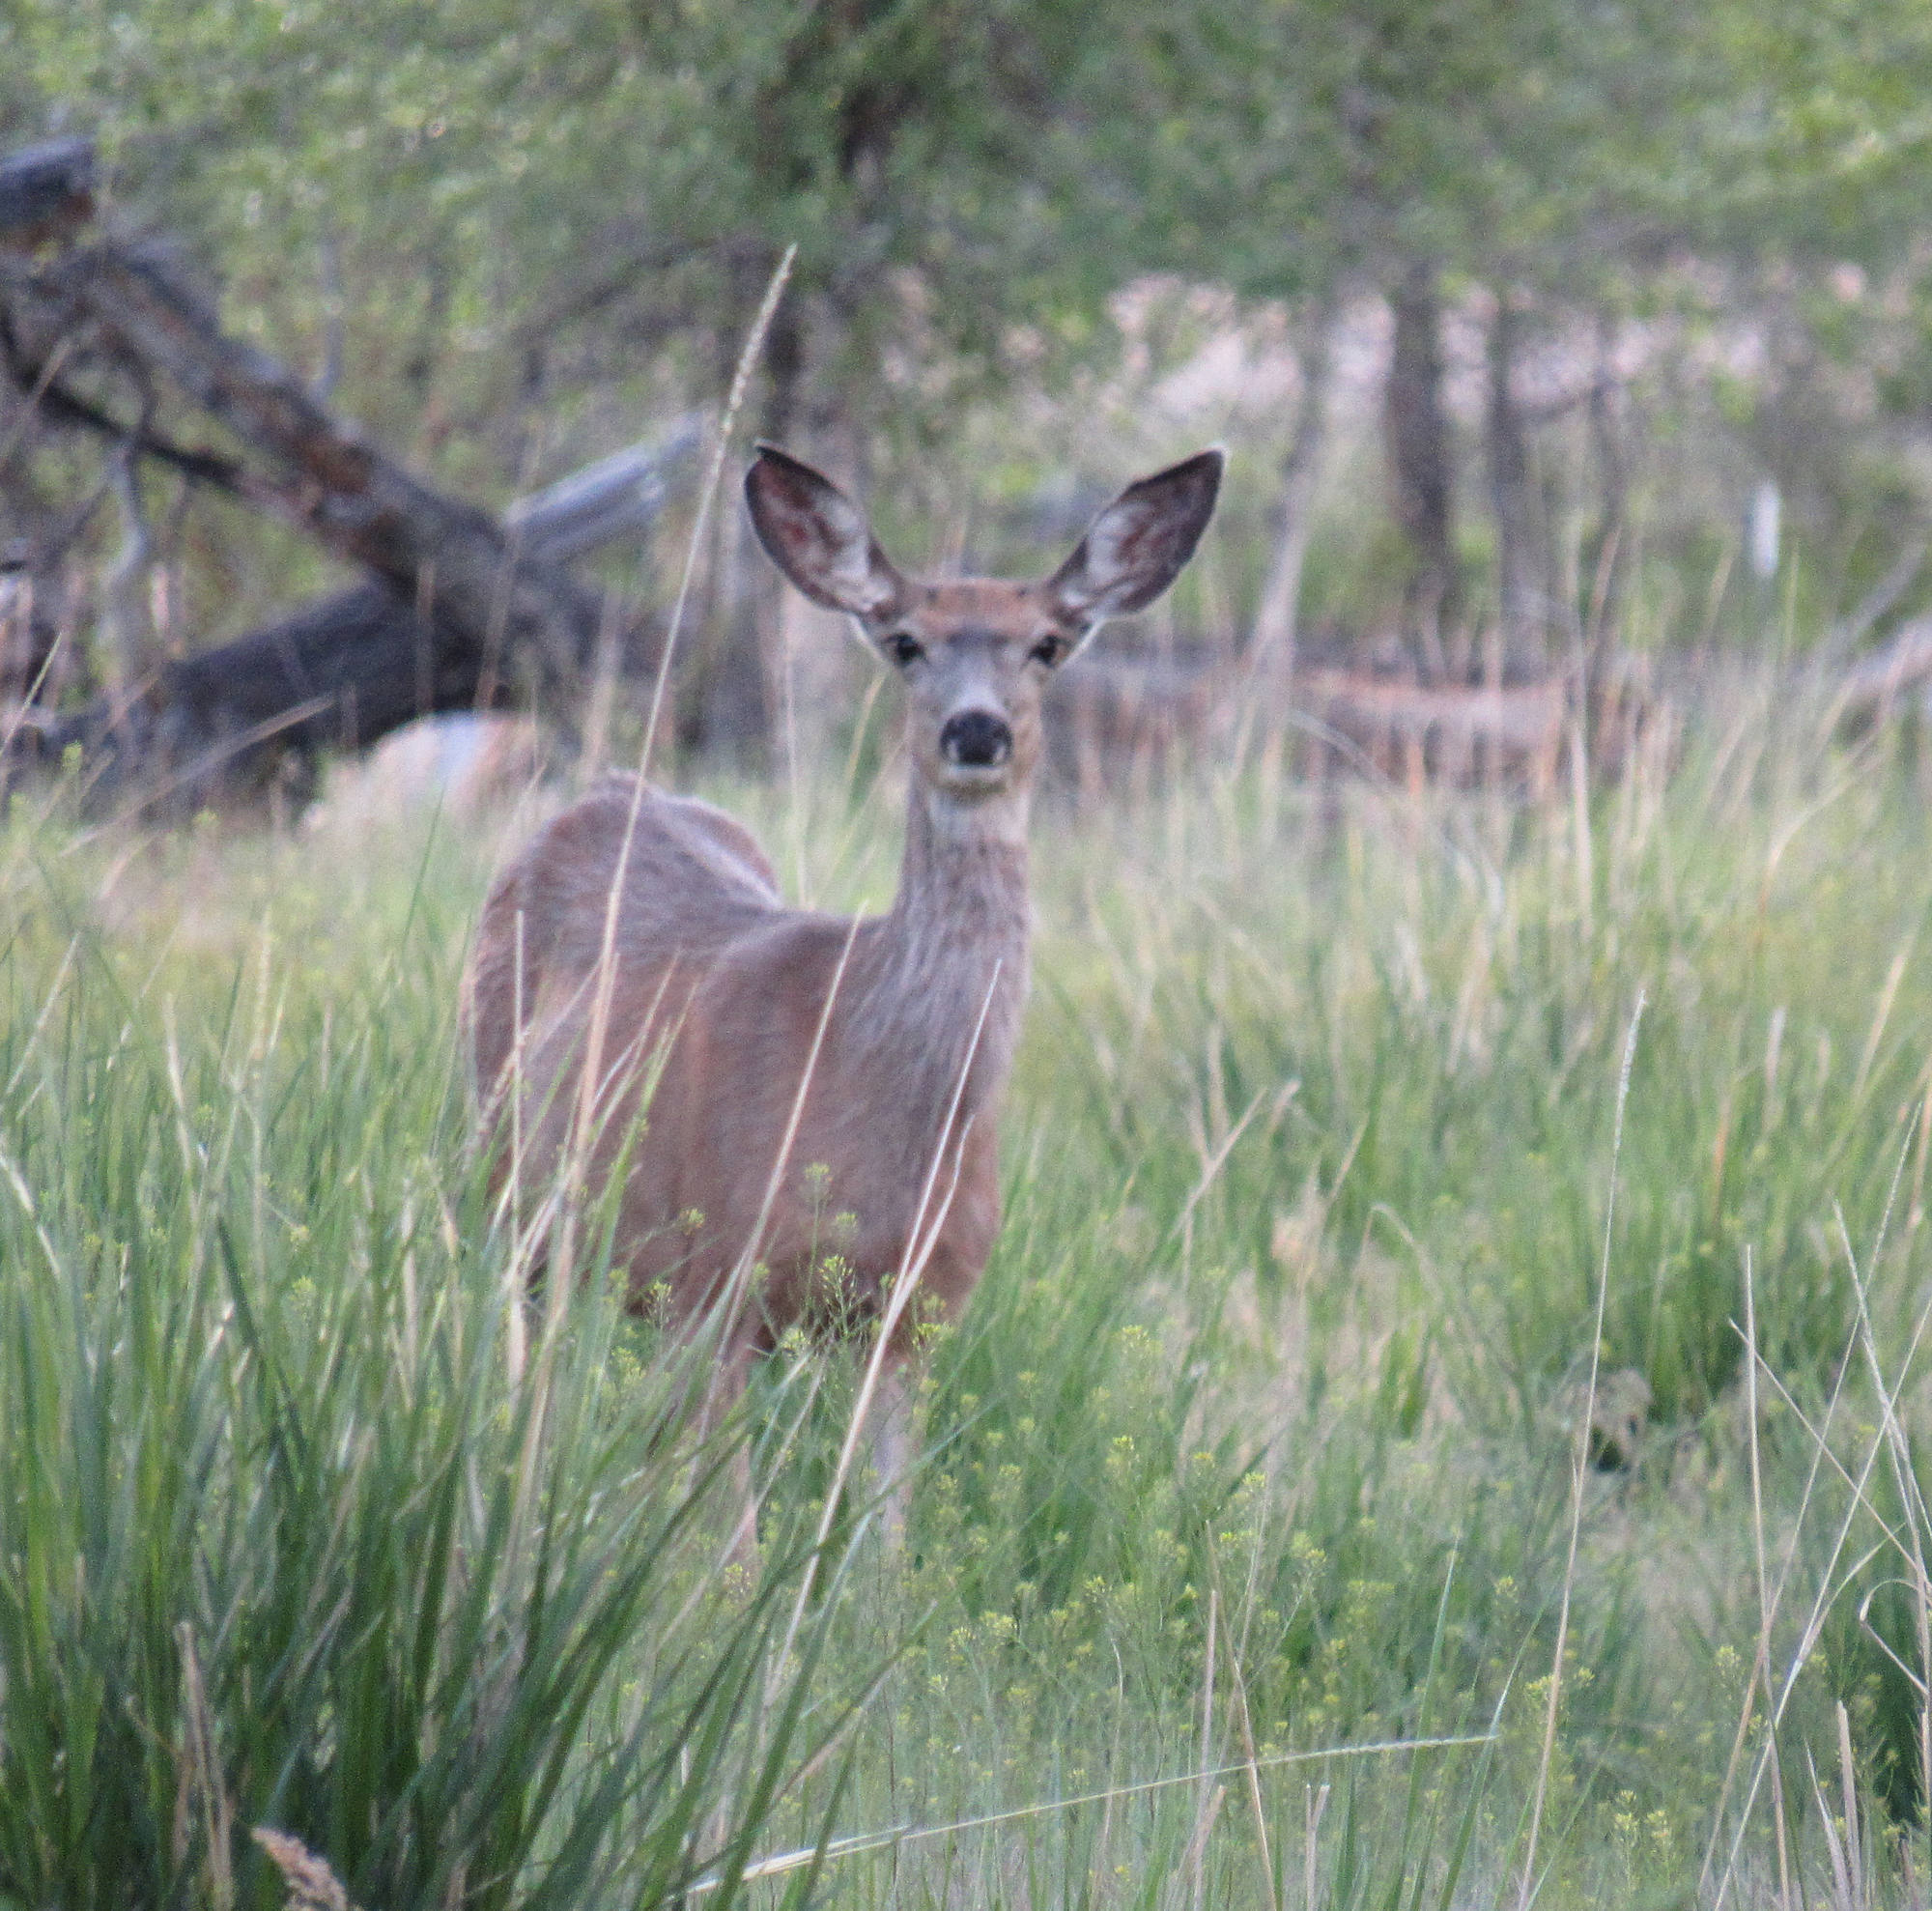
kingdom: Animalia
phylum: Chordata
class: Mammalia
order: Artiodactyla
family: Cervidae
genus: Odocoileus
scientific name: Odocoileus hemionus
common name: Mule deer
